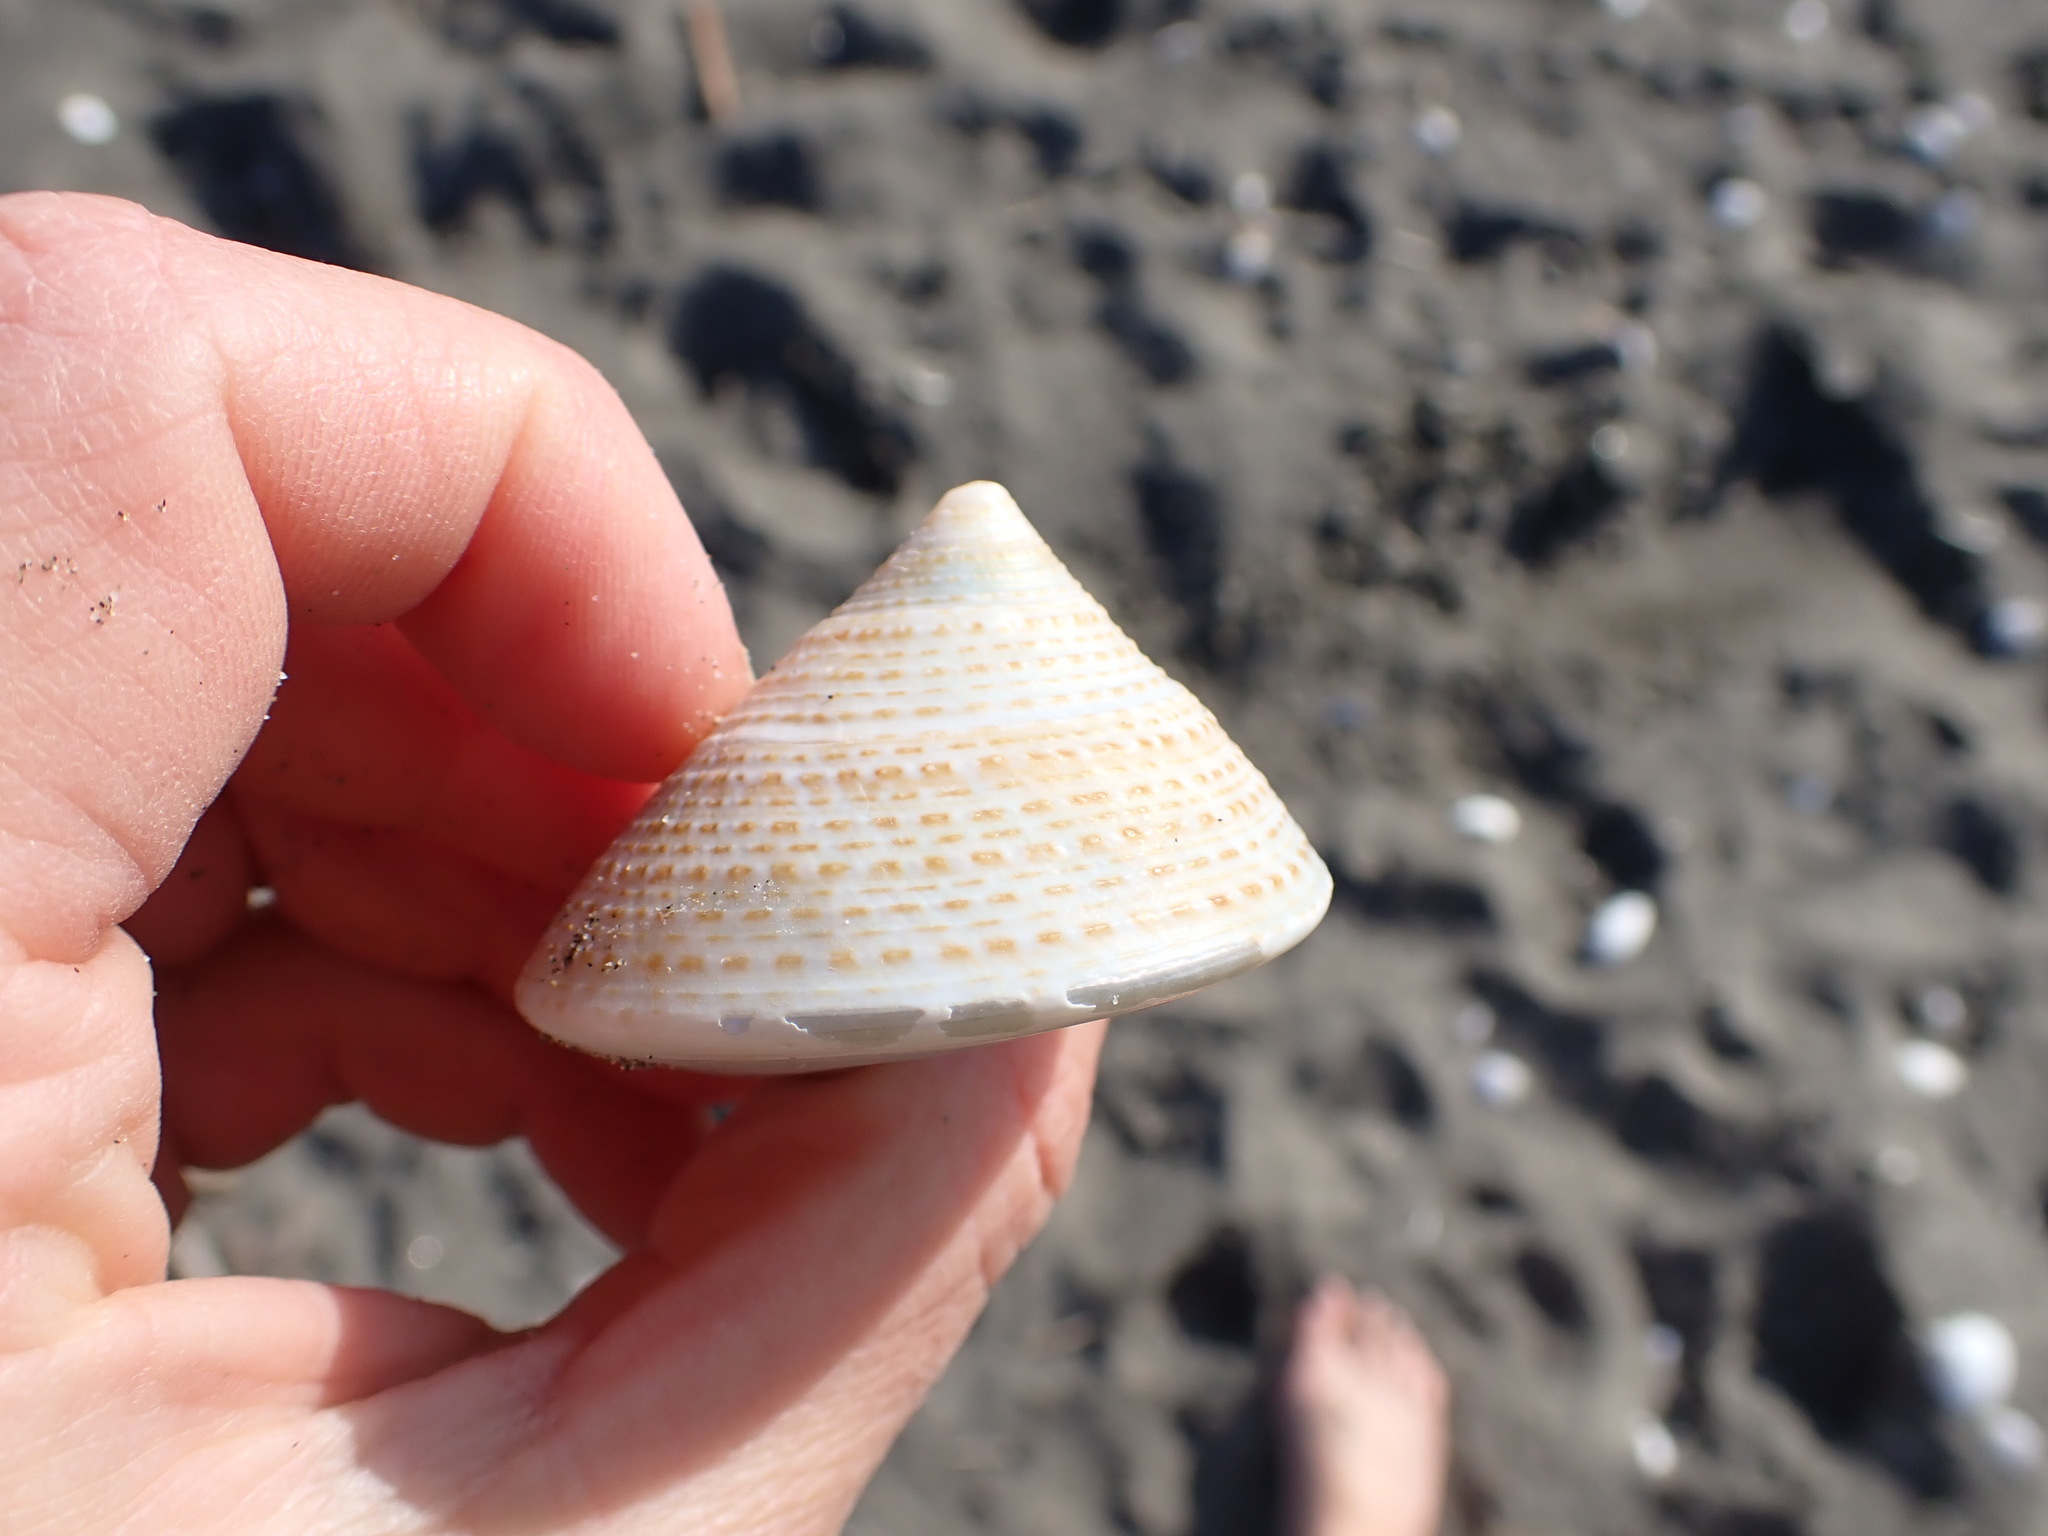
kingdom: Animalia
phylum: Mollusca
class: Gastropoda
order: Trochida
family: Calliostomatidae
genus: Maurea
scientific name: Maurea selecta
